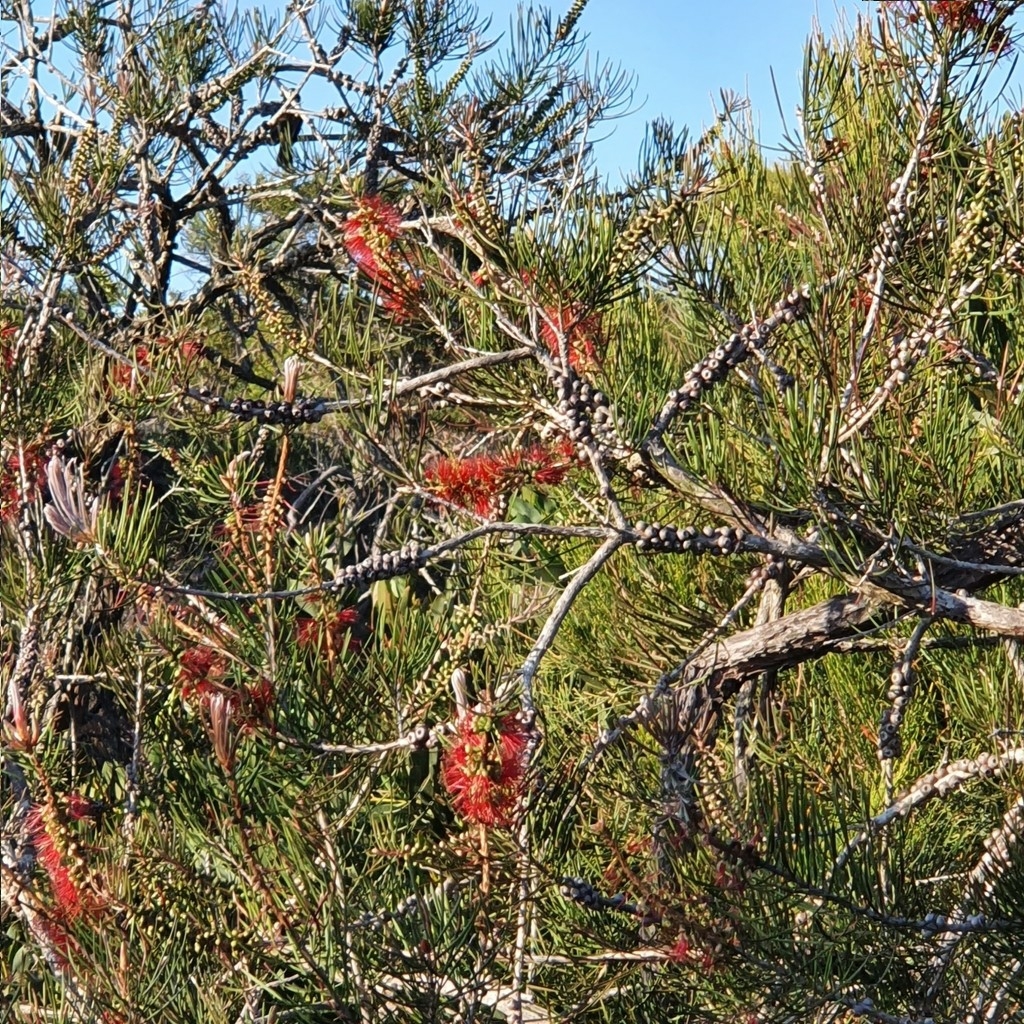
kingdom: Plantae
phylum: Tracheophyta
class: Magnoliopsida
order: Myrtales
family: Myrtaceae
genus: Callistemon
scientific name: Callistemon linearis
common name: Narrow-leaf bottlebrush
